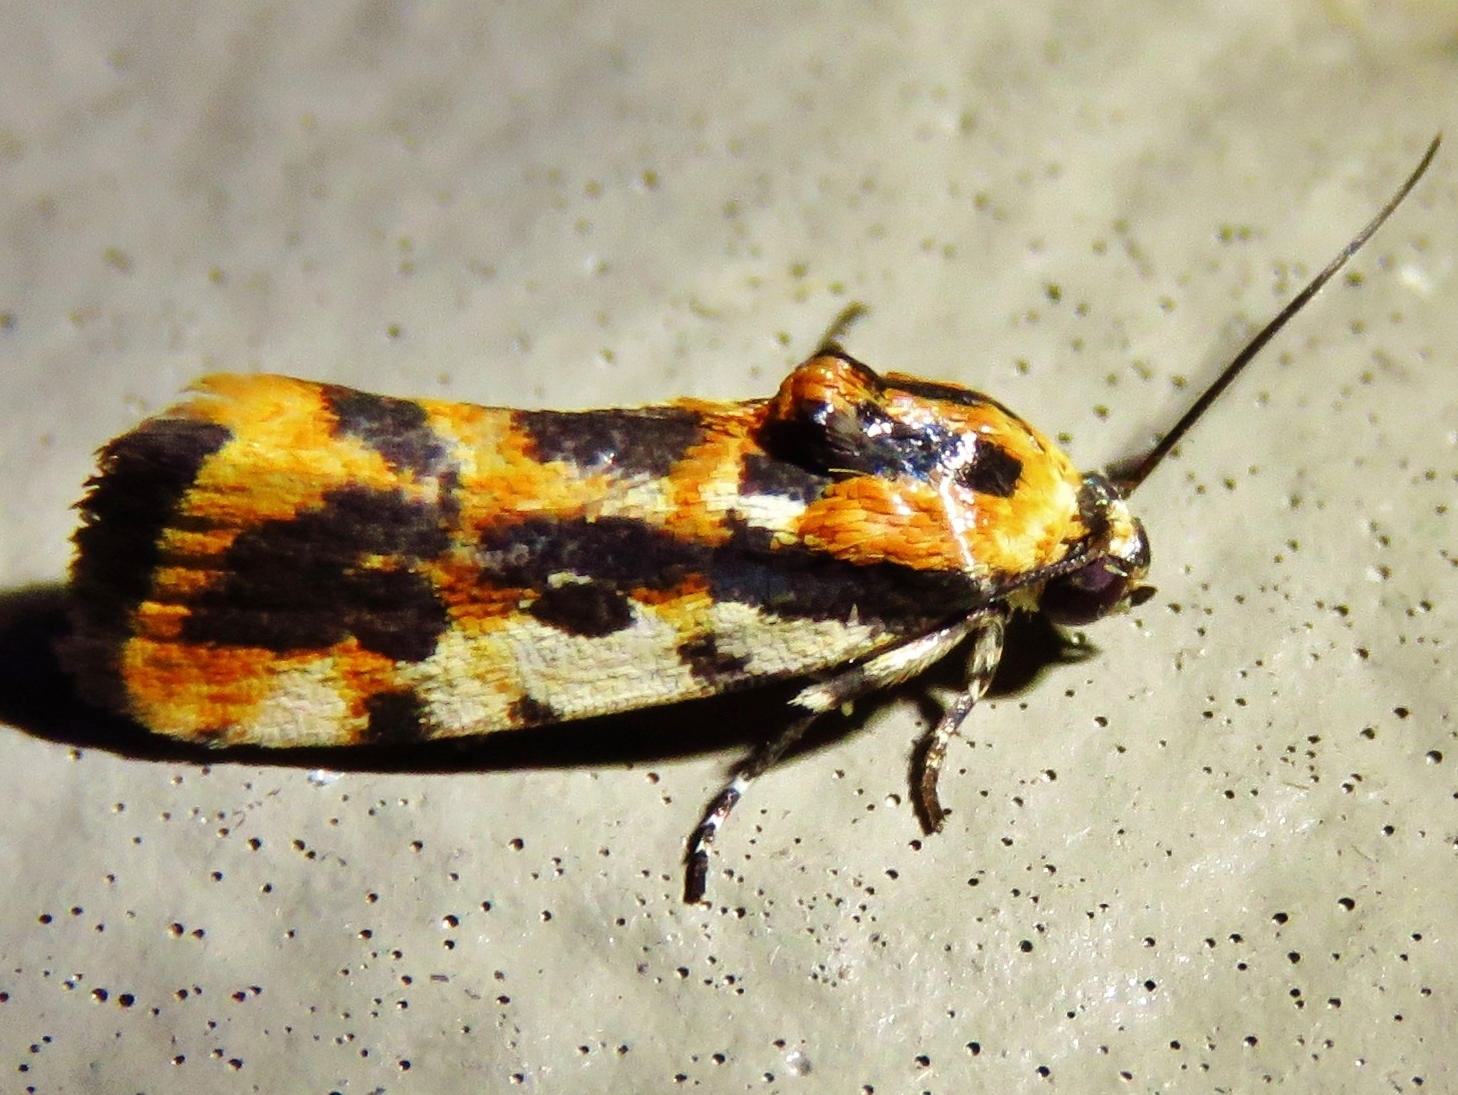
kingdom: Animalia
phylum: Arthropoda
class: Insecta
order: Lepidoptera
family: Noctuidae
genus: Acontia
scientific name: Acontia leo
